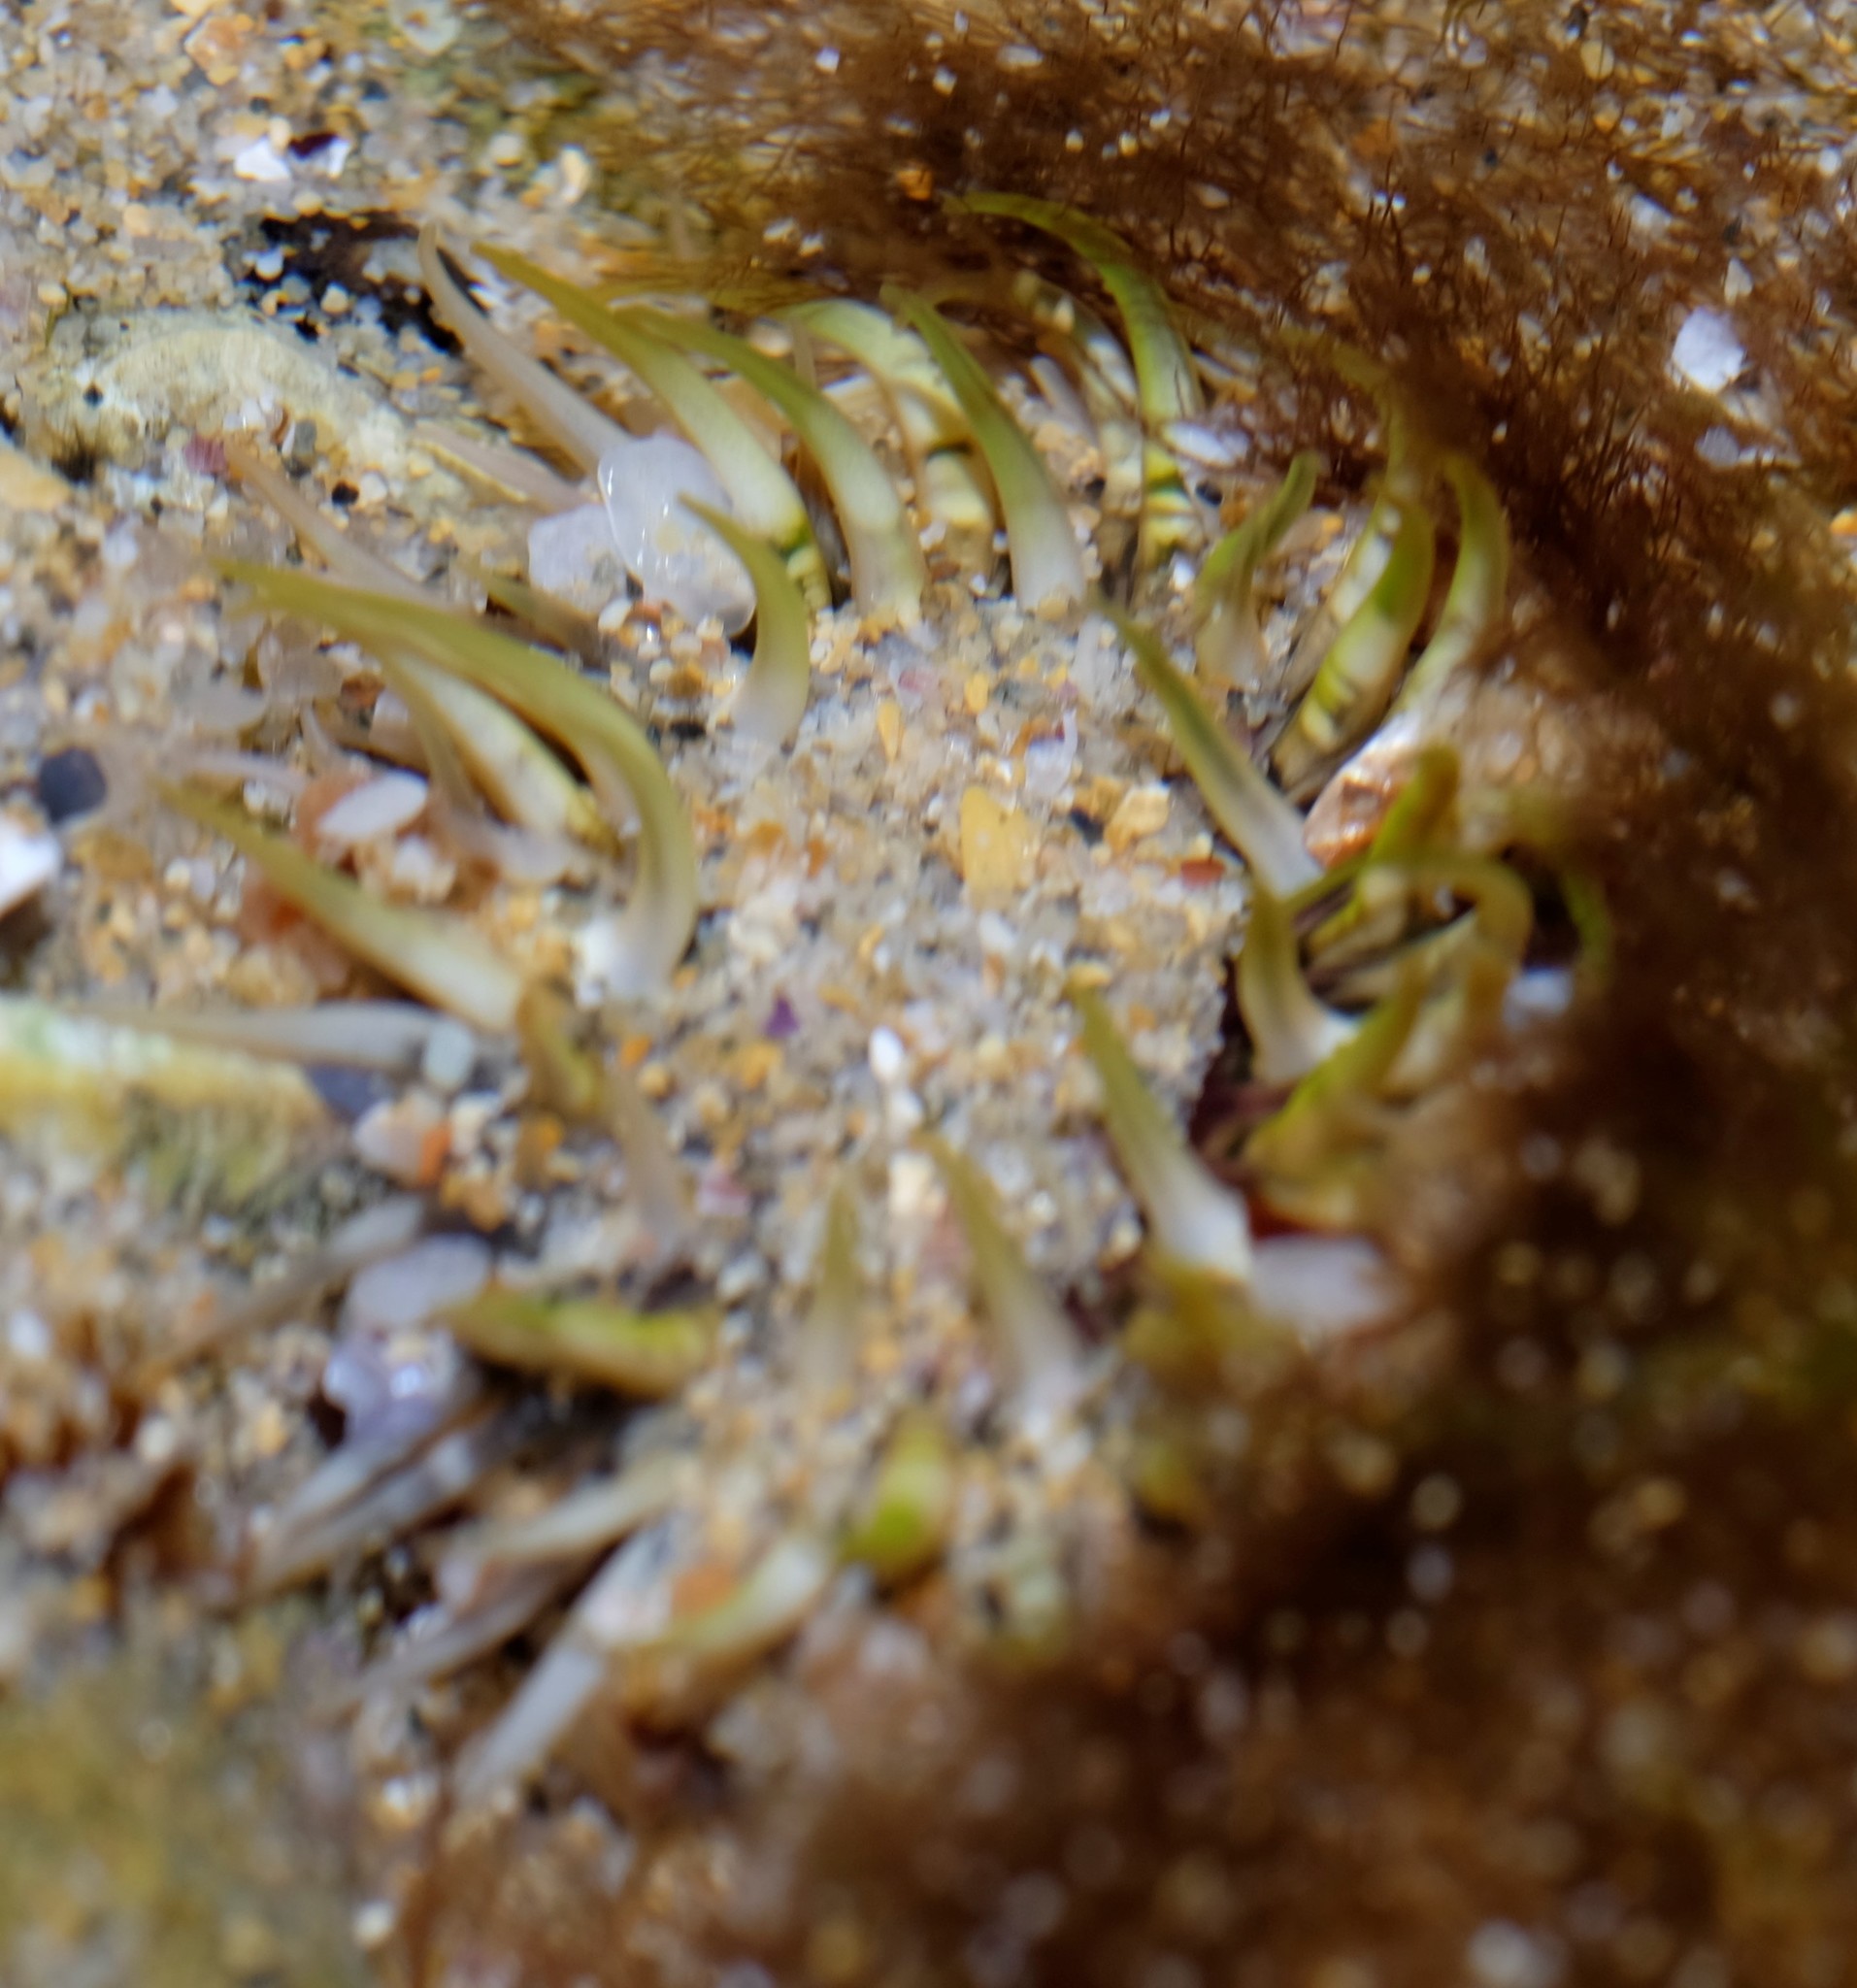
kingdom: Animalia
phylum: Cnidaria
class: Anthozoa
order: Actiniaria
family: Actiniidae
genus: Oulactis
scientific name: Oulactis muscosa
